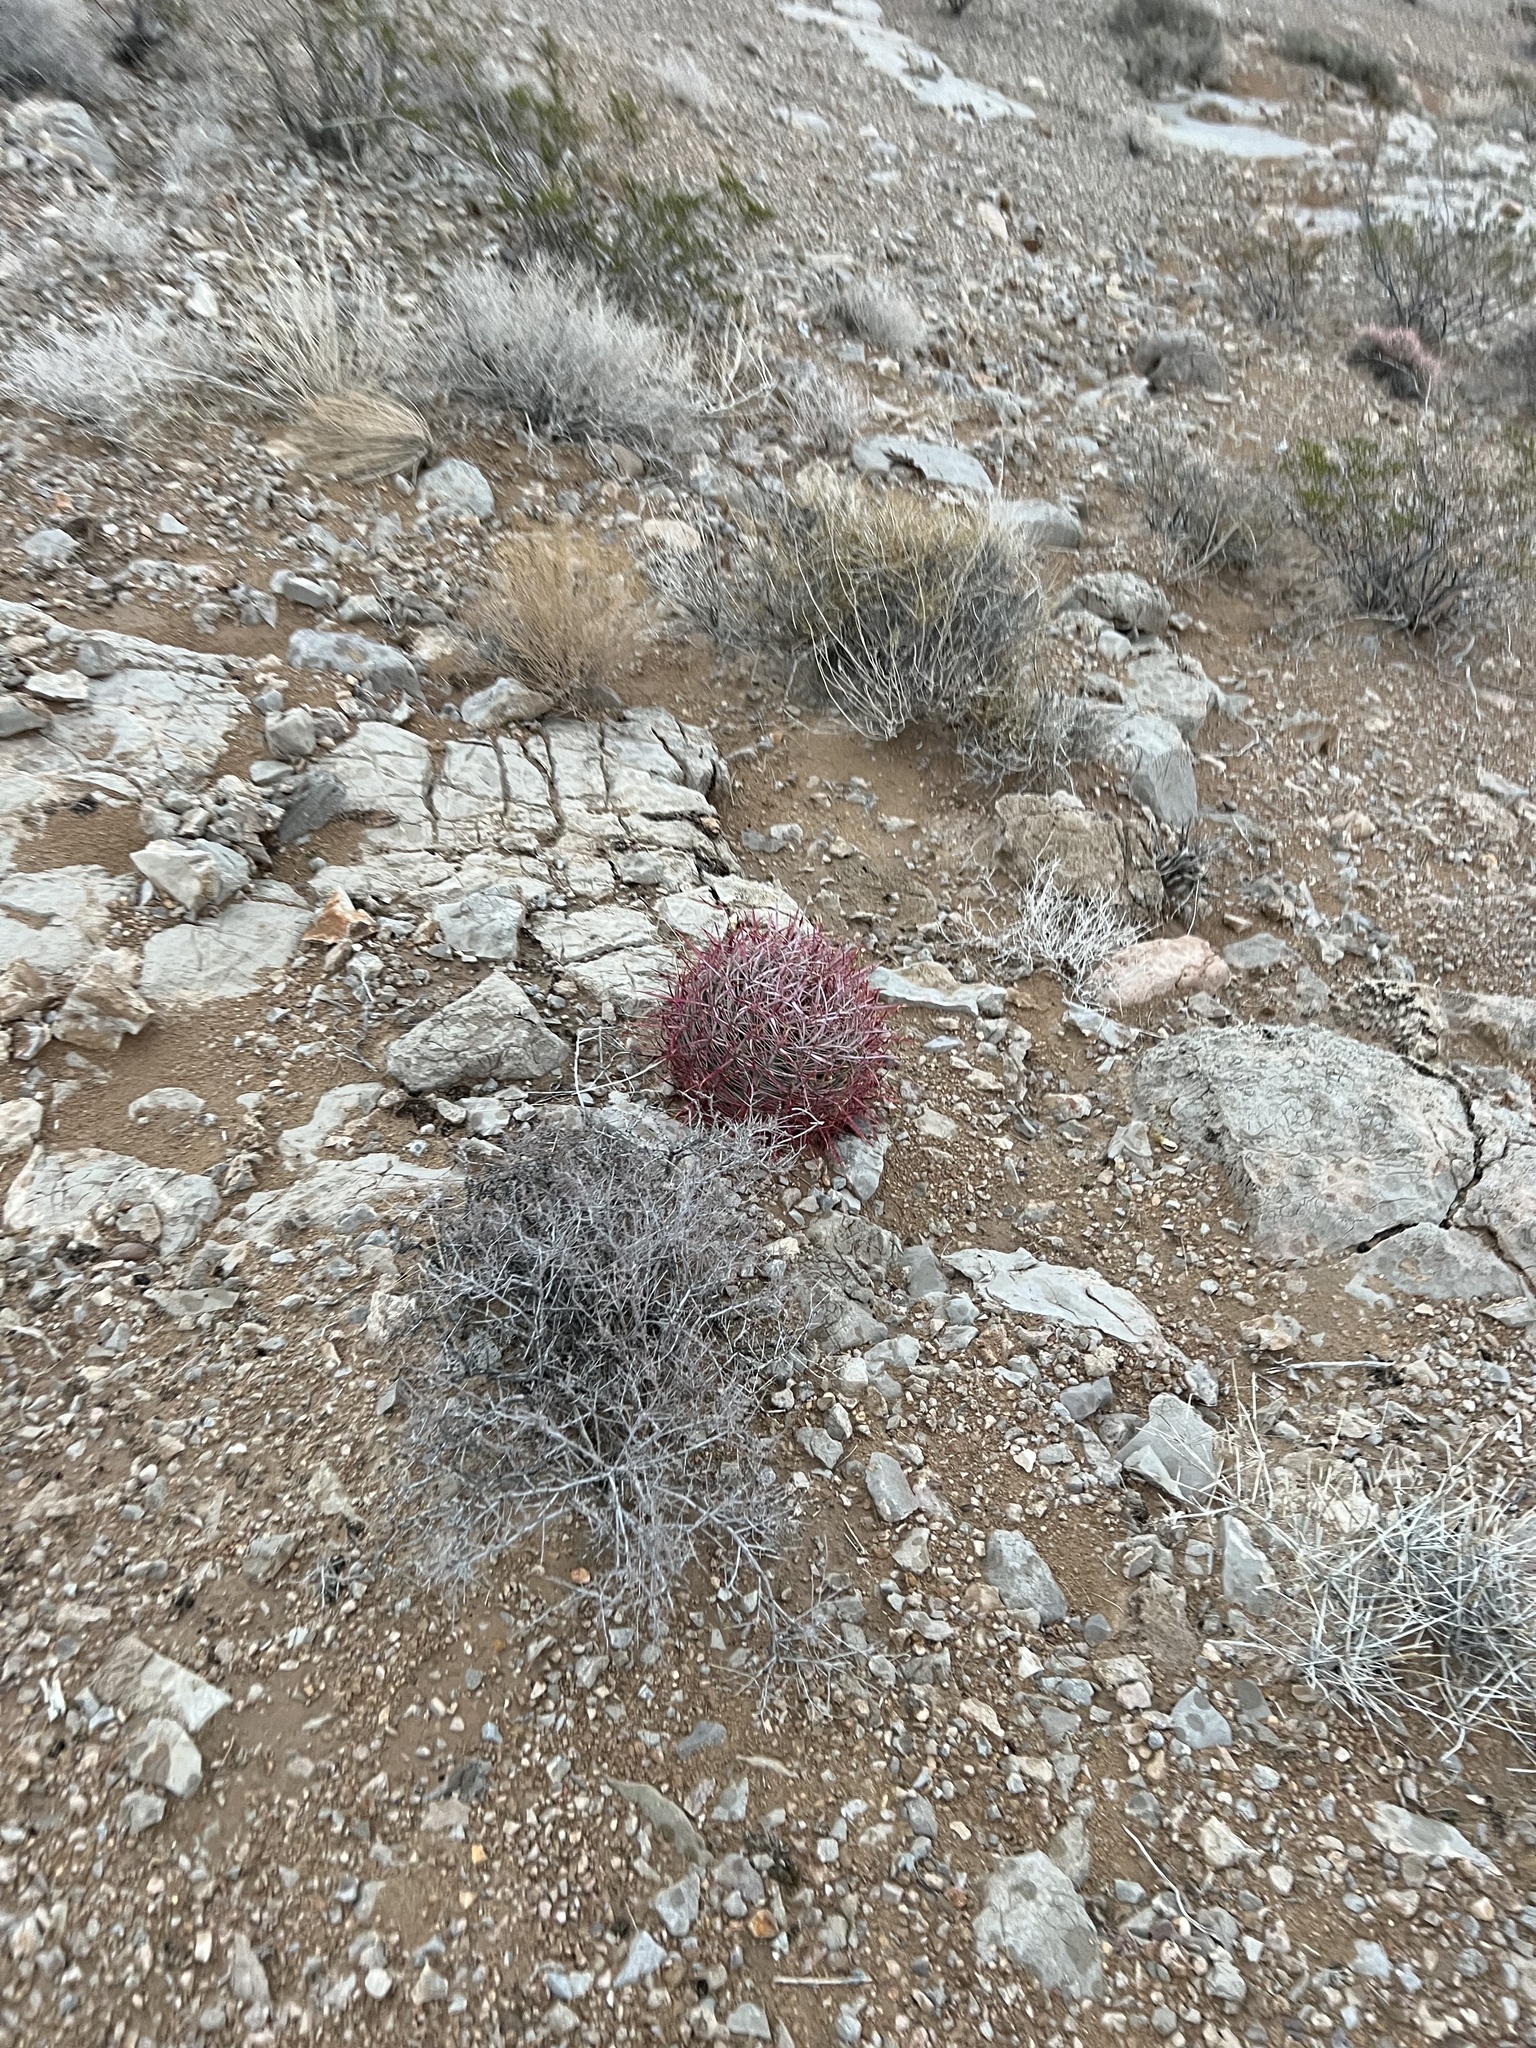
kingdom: Plantae
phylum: Tracheophyta
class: Magnoliopsida
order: Caryophyllales
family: Cactaceae
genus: Ferocactus
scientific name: Ferocactus cylindraceus
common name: California barrel cactus
